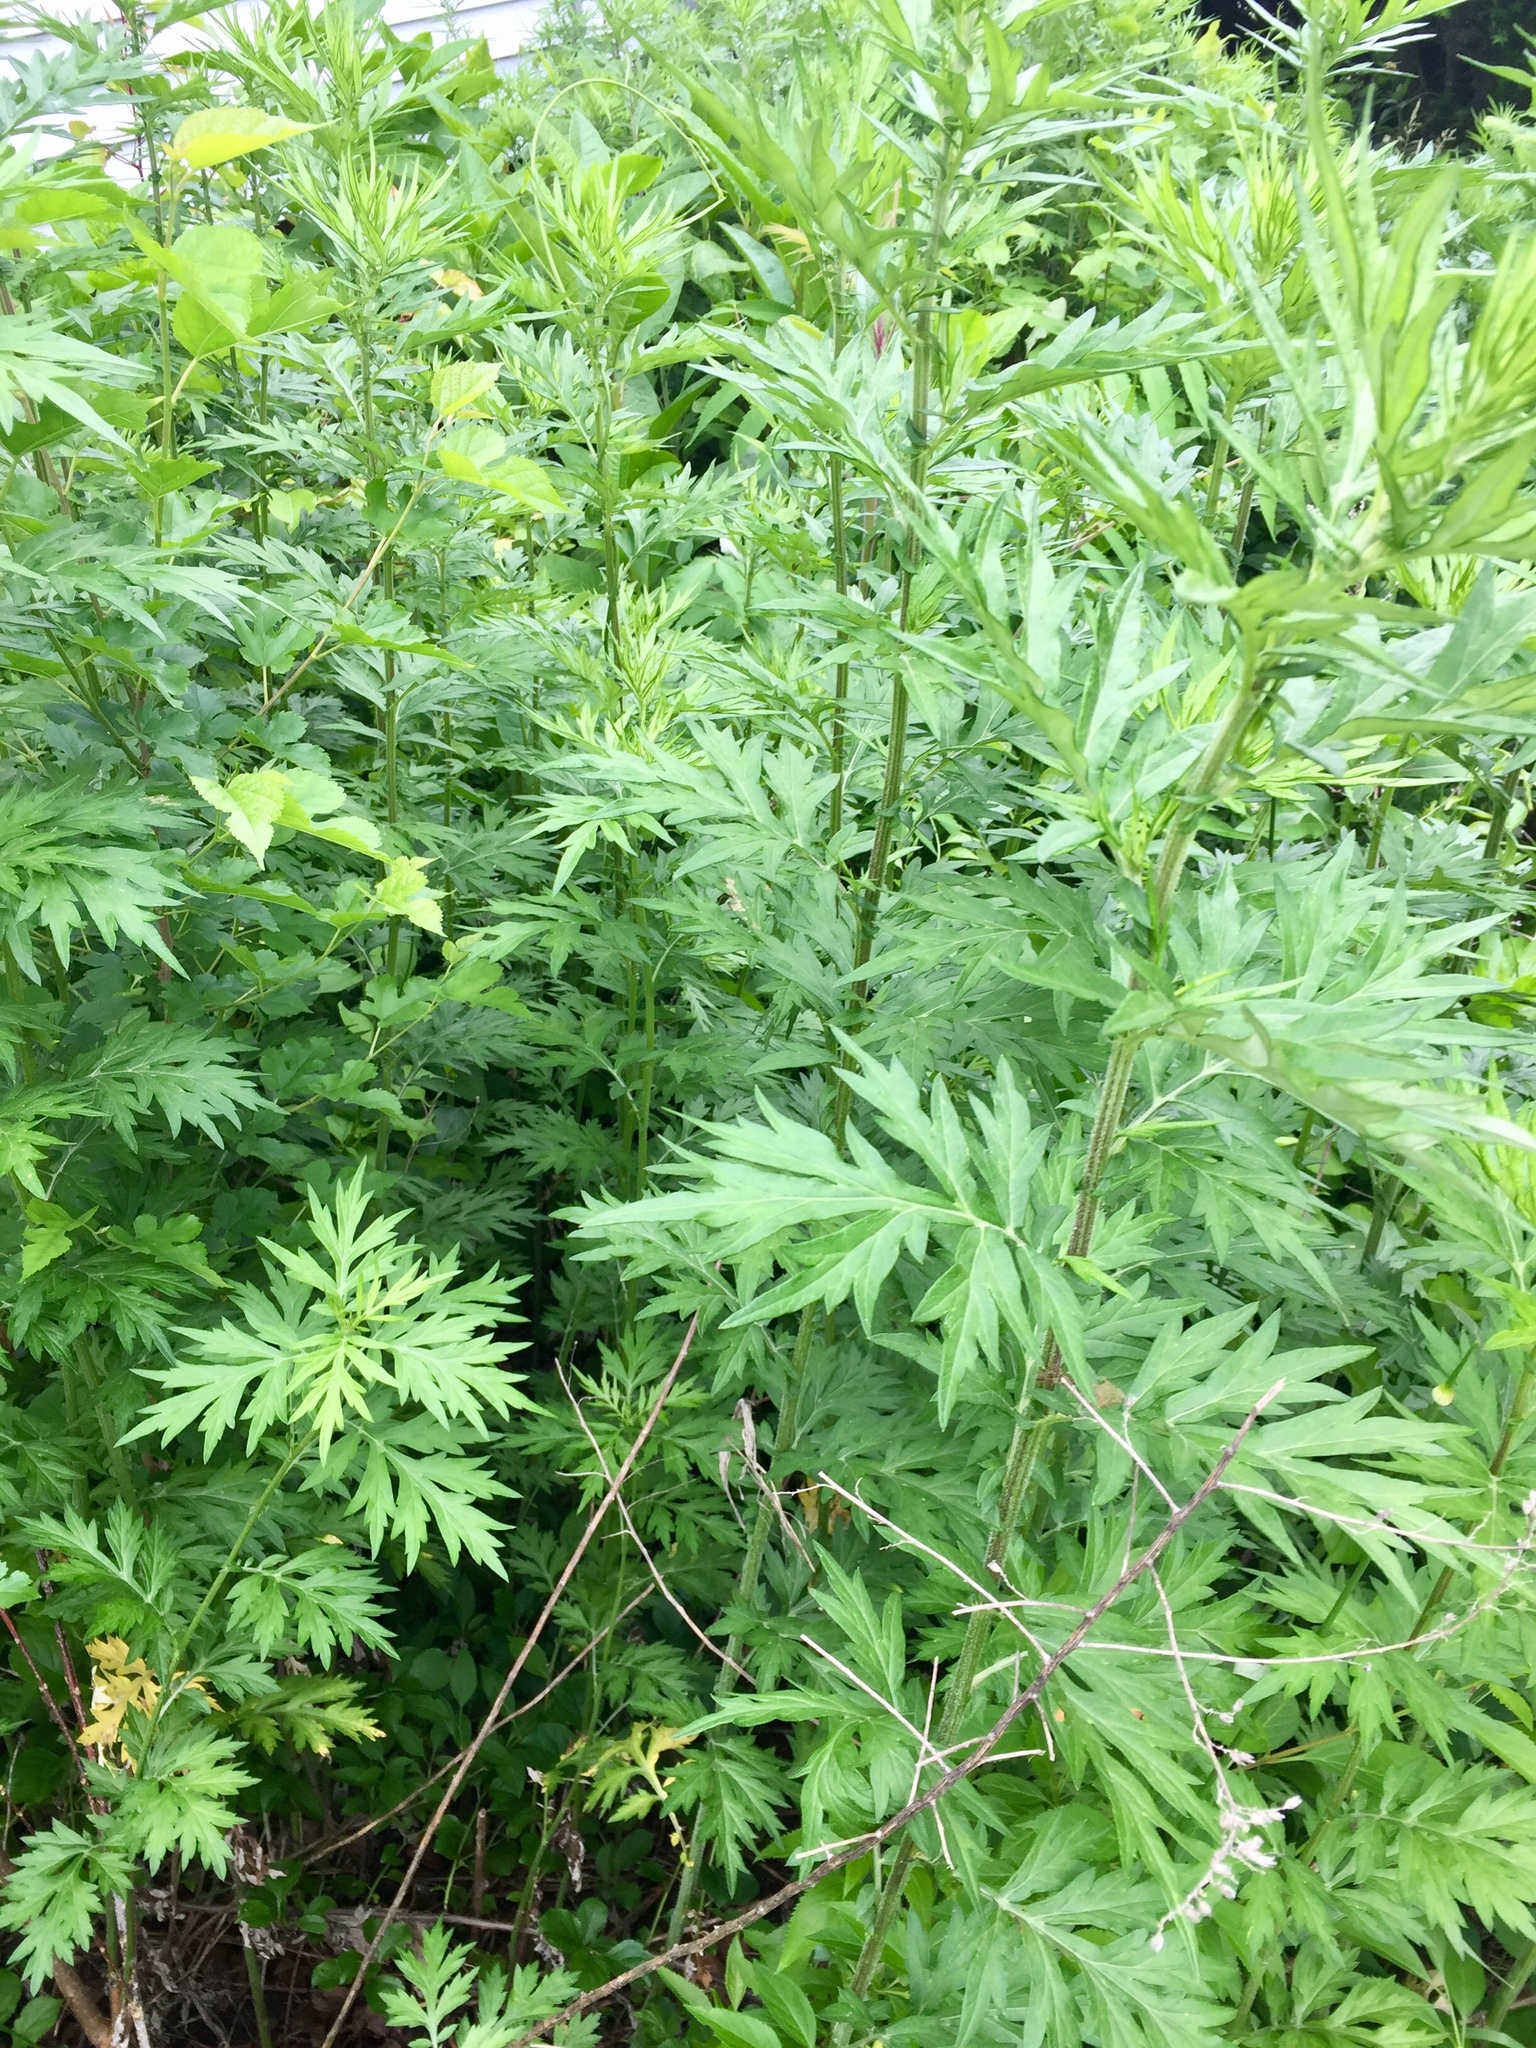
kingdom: Plantae
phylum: Tracheophyta
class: Magnoliopsida
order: Asterales
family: Asteraceae
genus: Artemisia
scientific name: Artemisia vulgaris
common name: Mugwort
